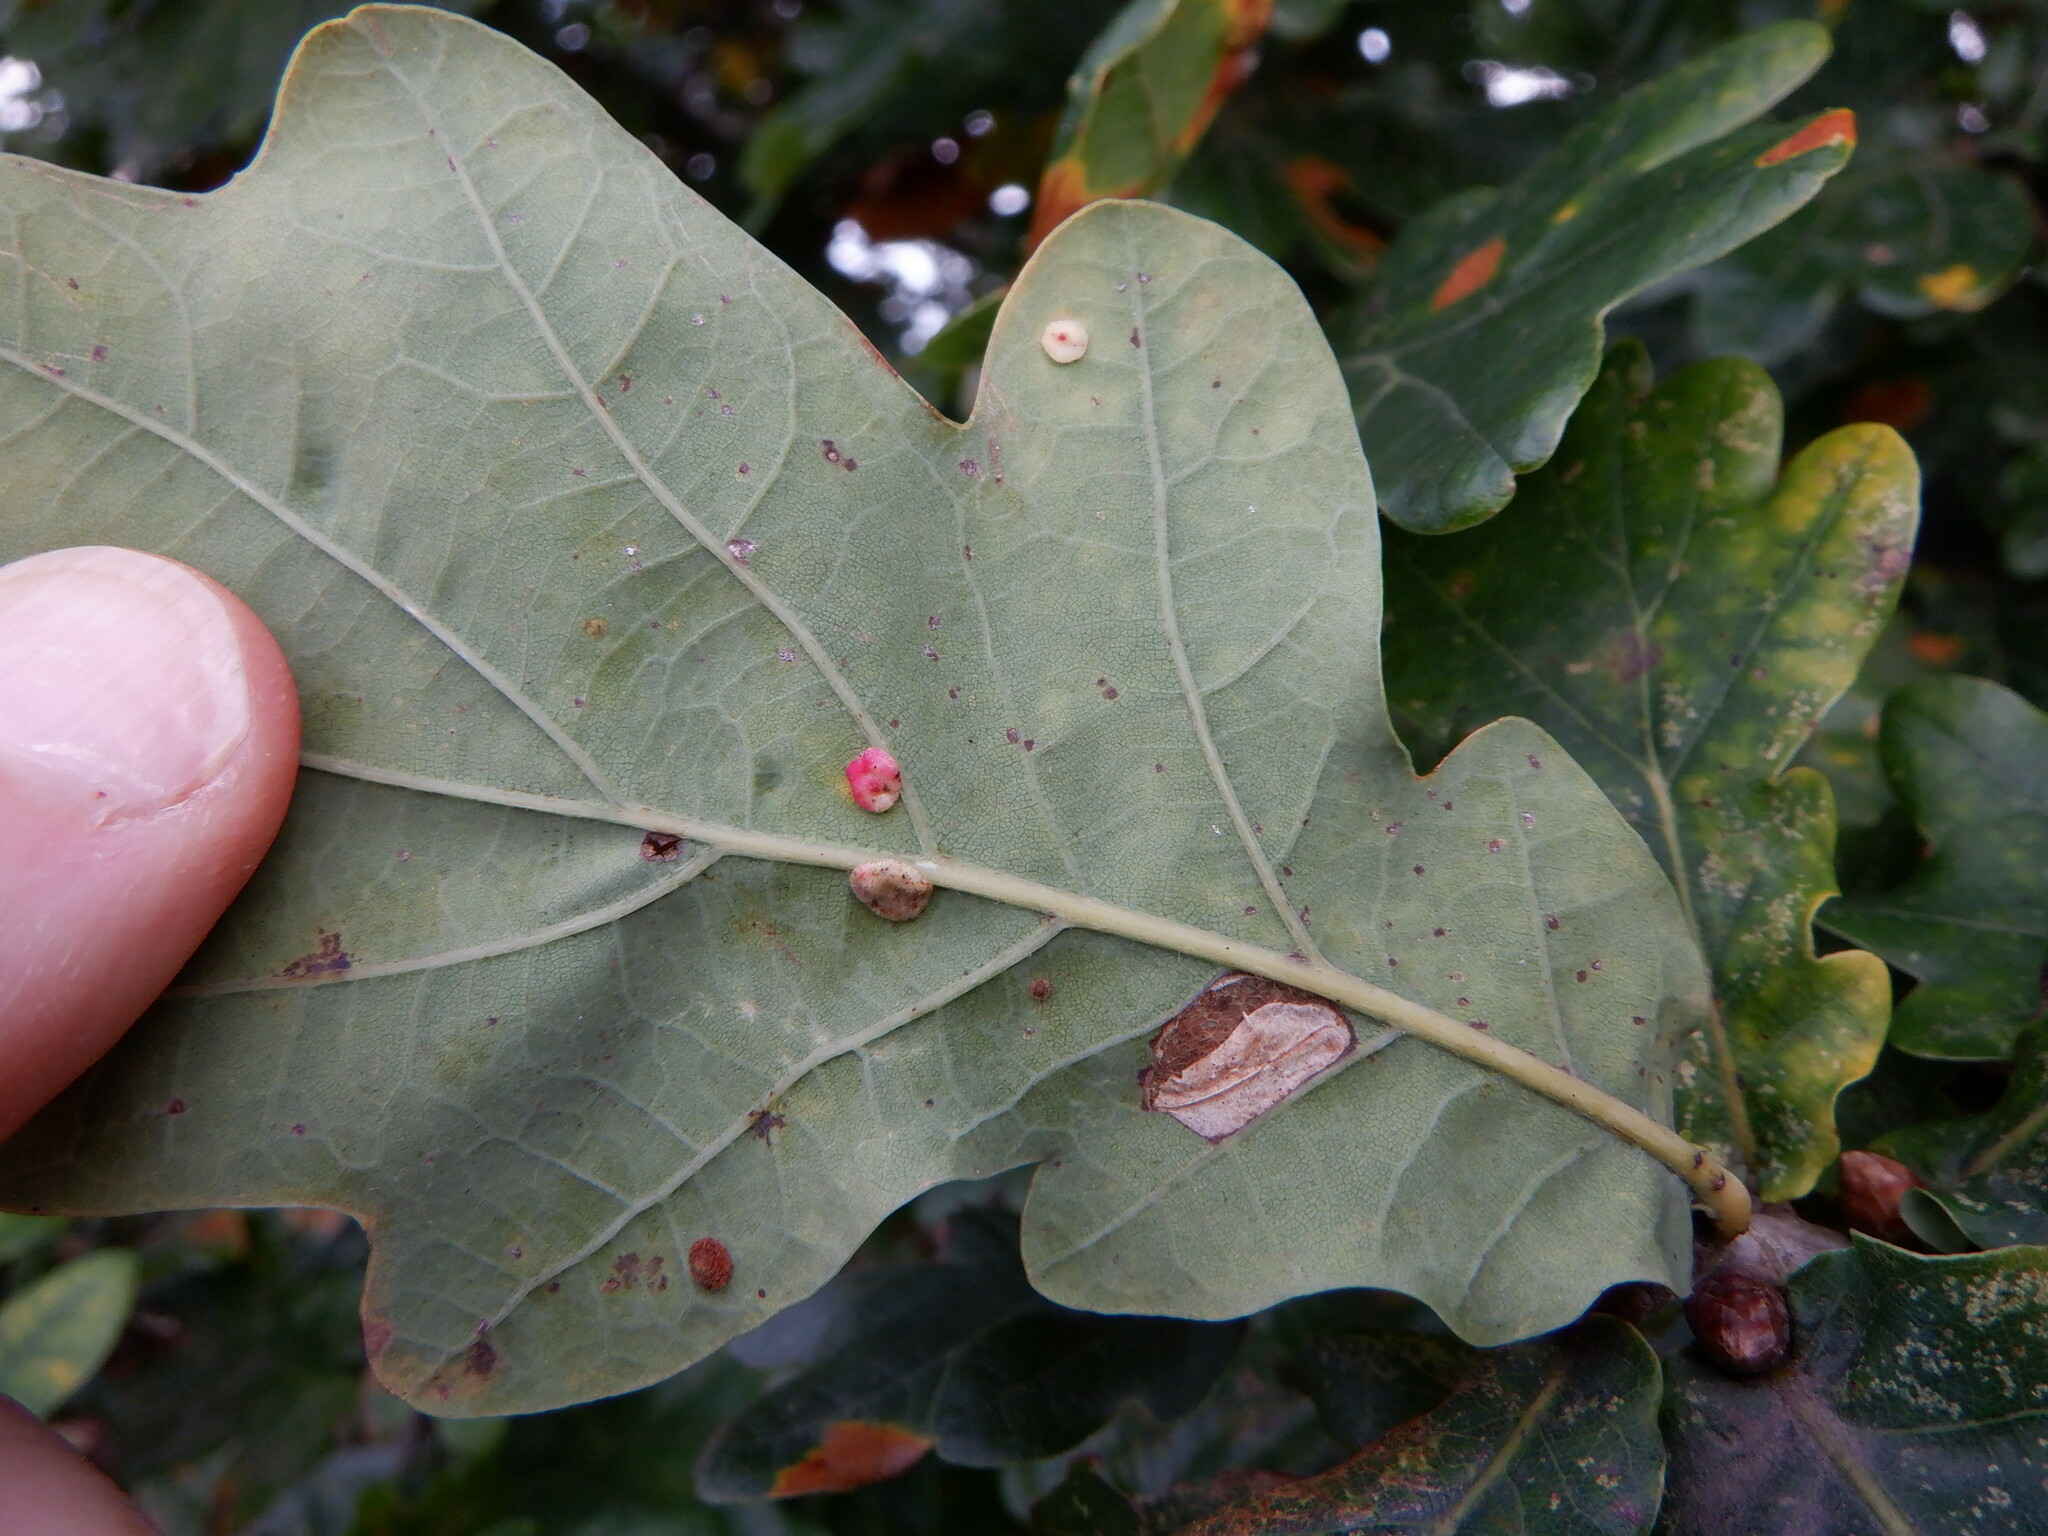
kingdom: Animalia
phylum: Arthropoda
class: Insecta
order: Hymenoptera
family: Cynipidae
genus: Neuroterus
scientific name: Neuroterus albipes
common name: Smooth spangle gall
